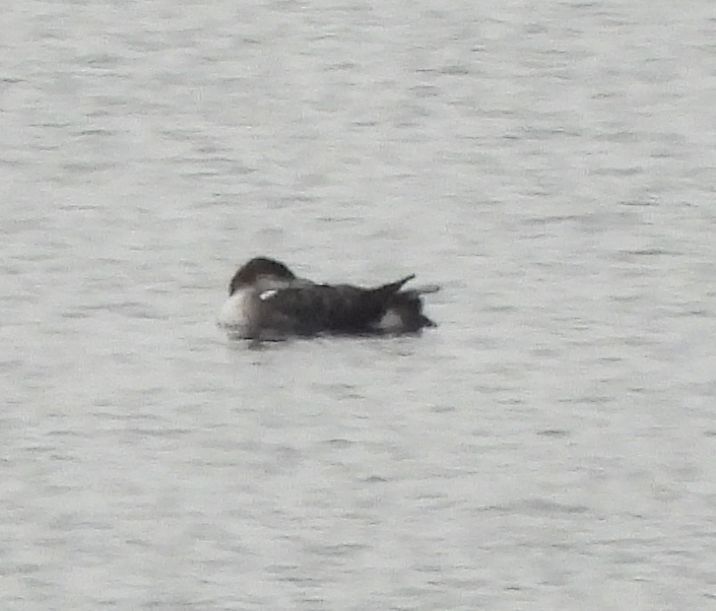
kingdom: Animalia
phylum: Chordata
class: Aves
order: Gaviiformes
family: Gaviidae
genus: Gavia
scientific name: Gavia immer
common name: Common loon
